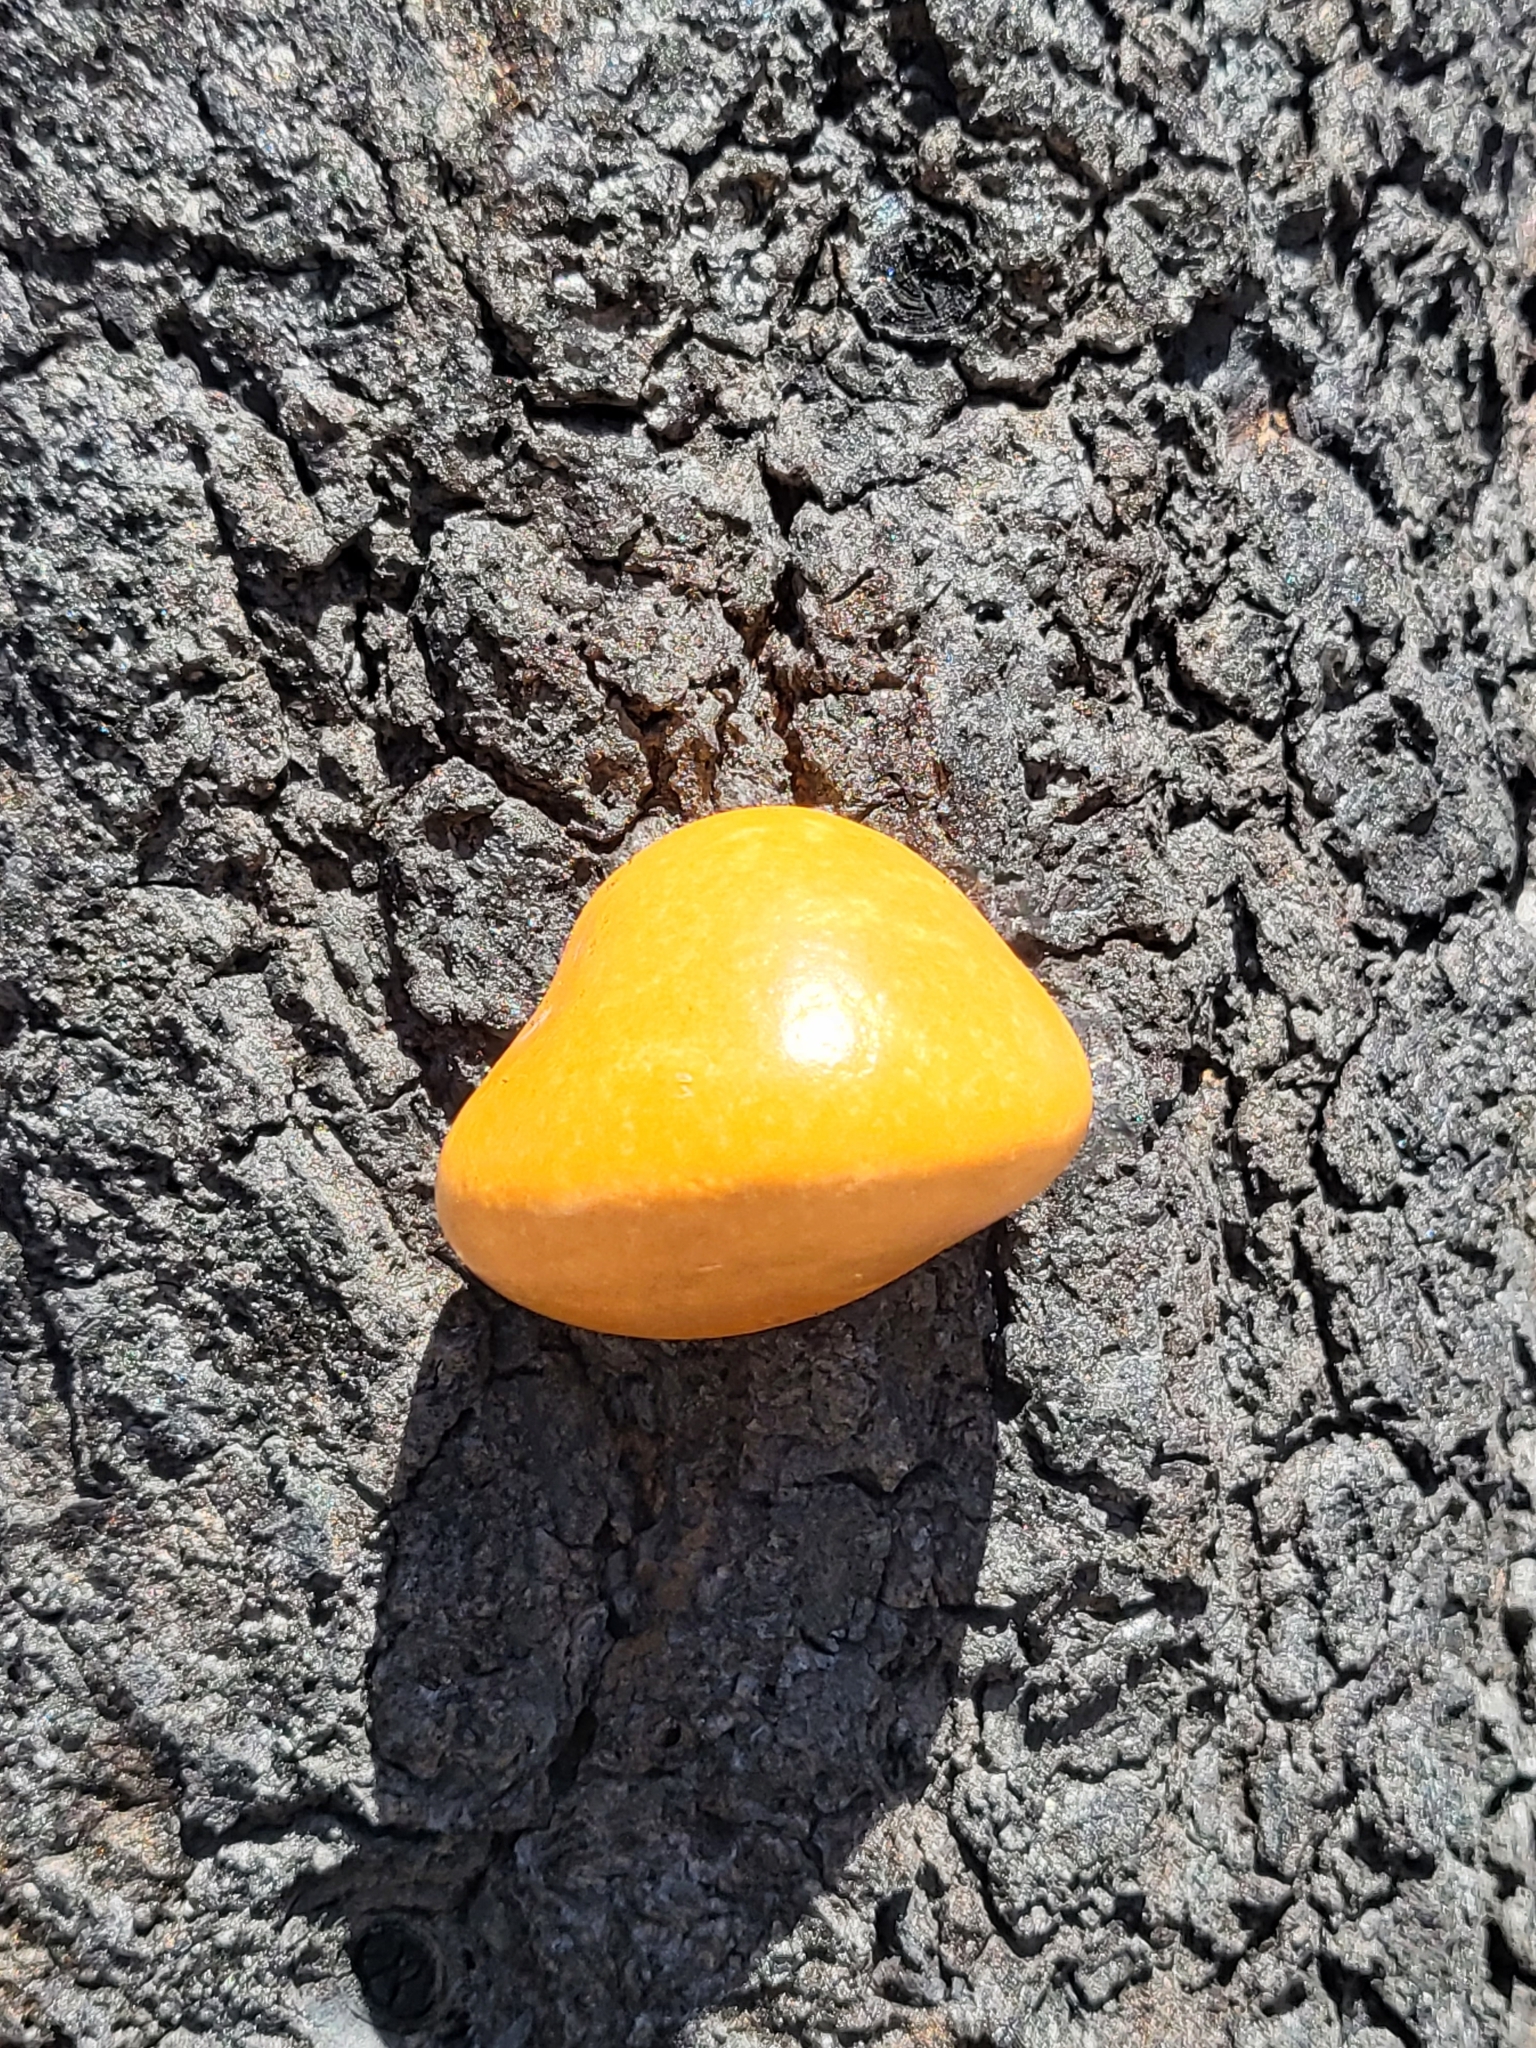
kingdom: Fungi
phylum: Basidiomycota
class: Agaricomycetes
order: Polyporales
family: Polyporaceae
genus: Cryptoporus
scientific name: Cryptoporus volvatus
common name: Veiled polypore
